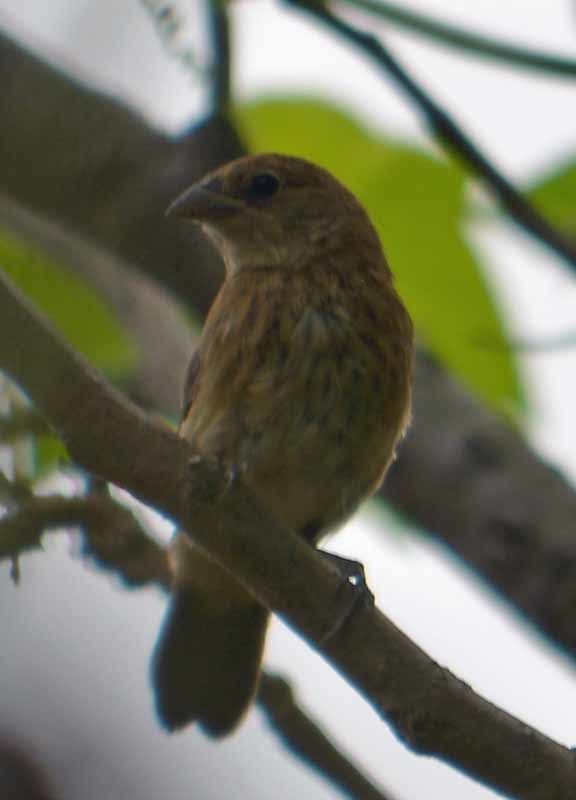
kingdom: Animalia
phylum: Chordata
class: Aves
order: Passeriformes
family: Thraupidae
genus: Volatinia
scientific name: Volatinia jacarina
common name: Blue-black grassquit
